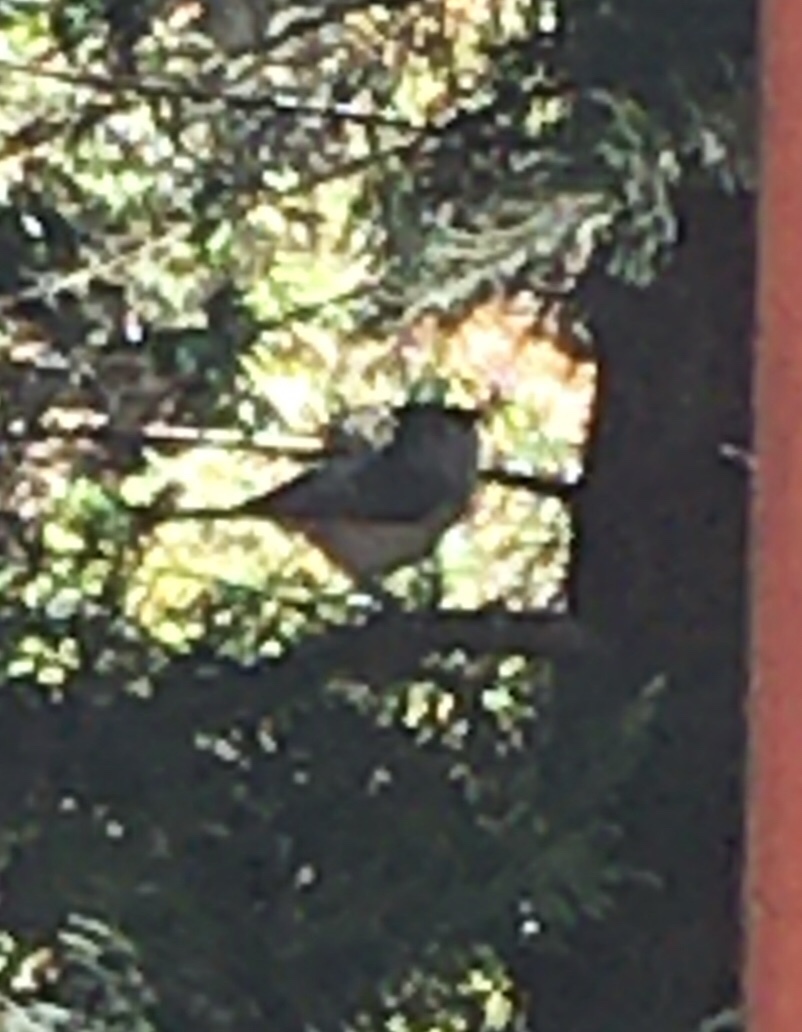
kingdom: Animalia
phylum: Chordata
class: Aves
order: Passeriformes
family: Paridae
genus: Baeolophus
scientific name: Baeolophus bicolor
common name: Tufted titmouse
